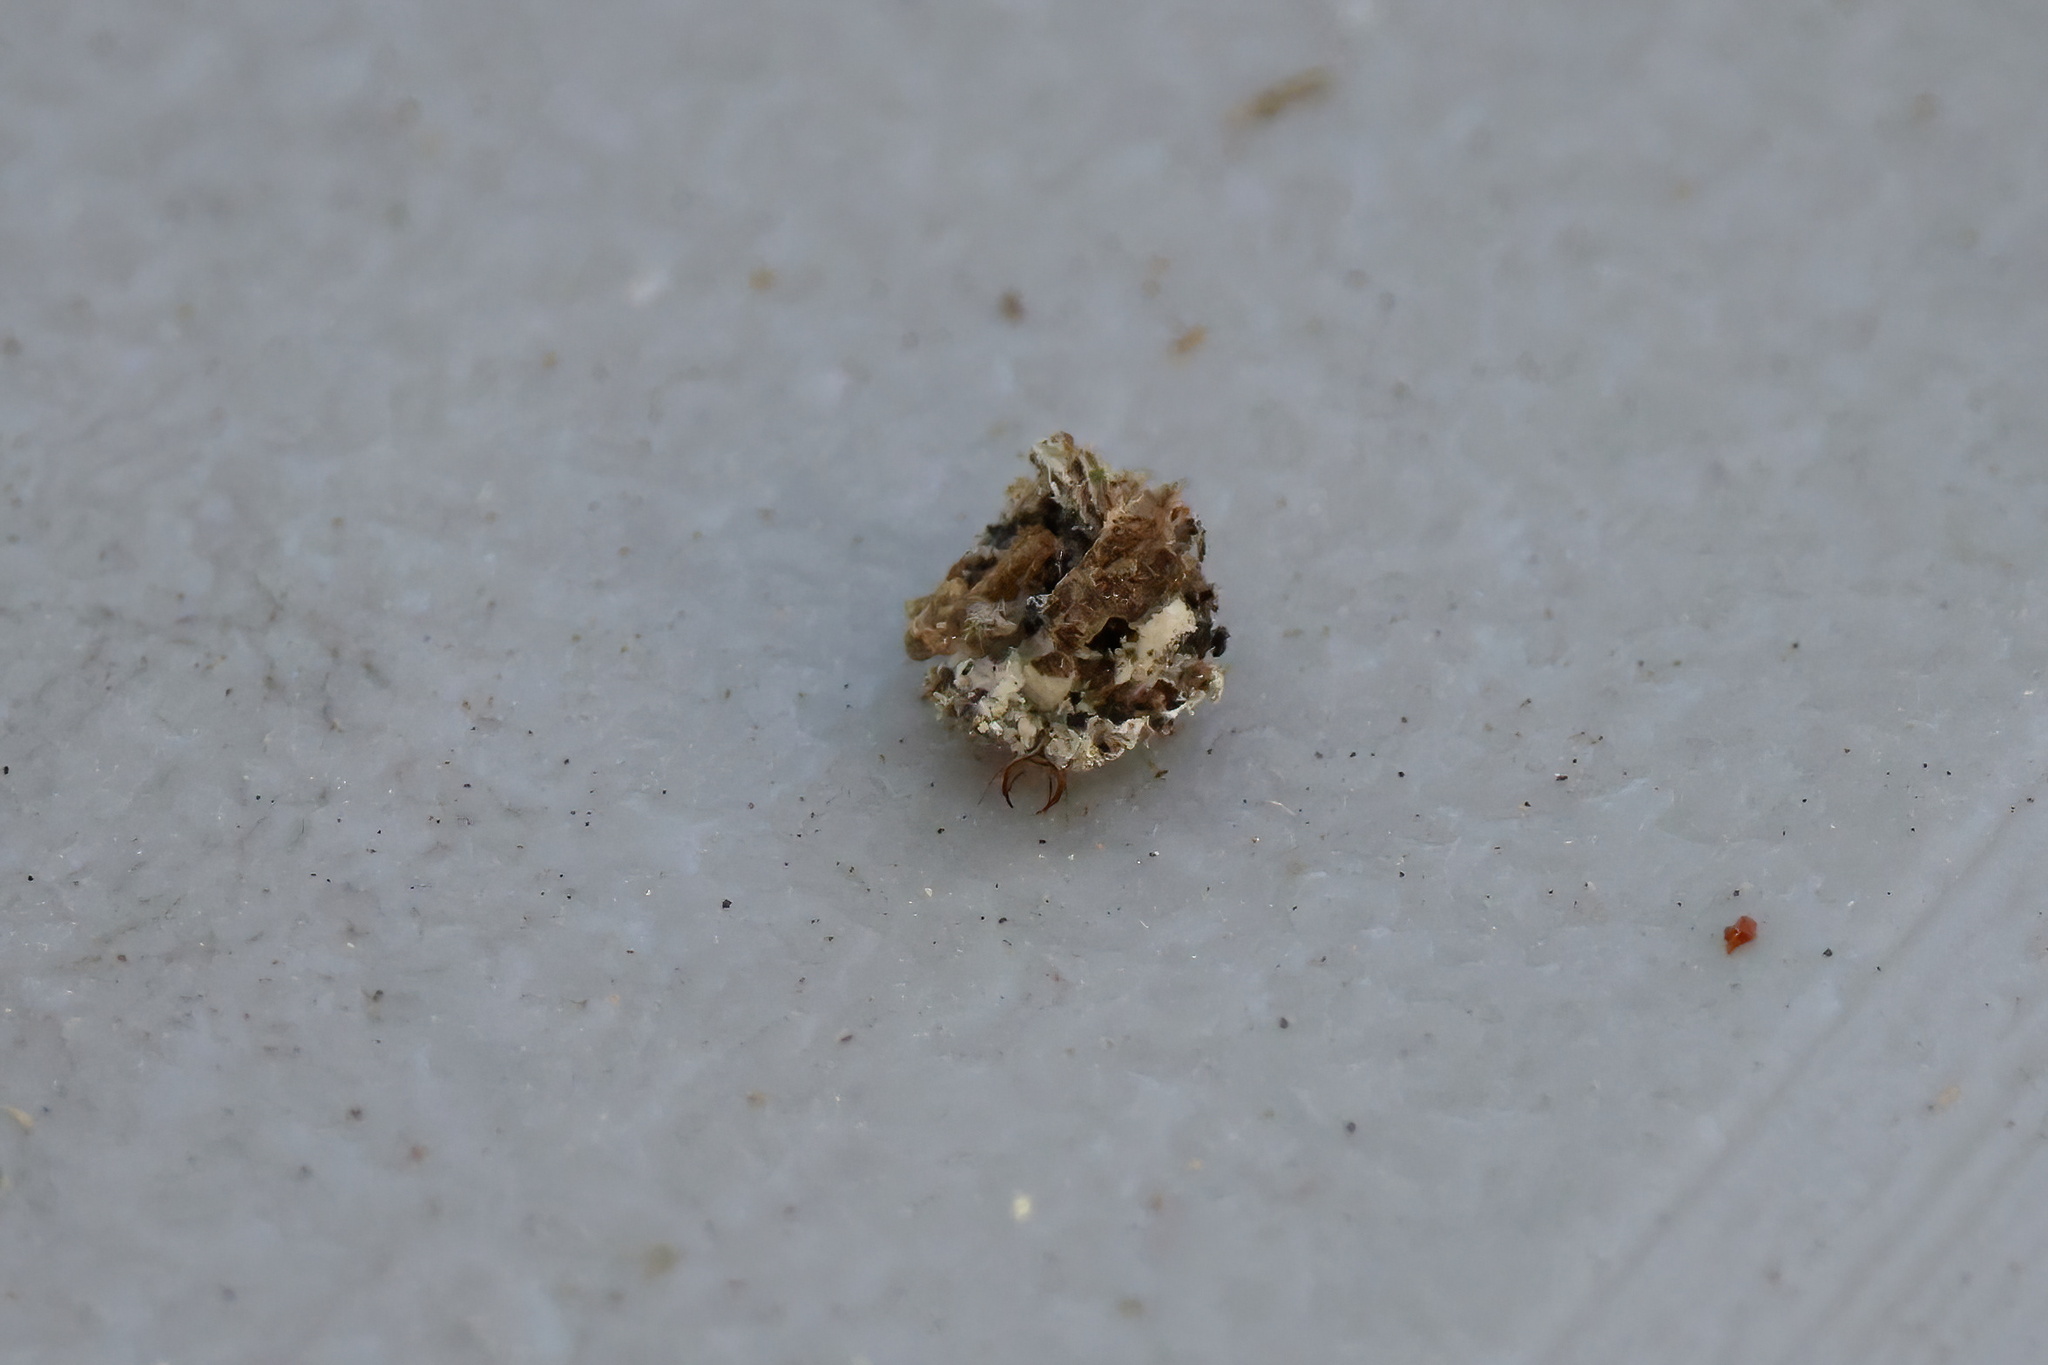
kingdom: Animalia
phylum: Arthropoda
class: Insecta
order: Neuroptera
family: Chrysopidae
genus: Leucochrysa
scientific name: Leucochrysa pavida
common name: Lichen-carrying green lacewing
